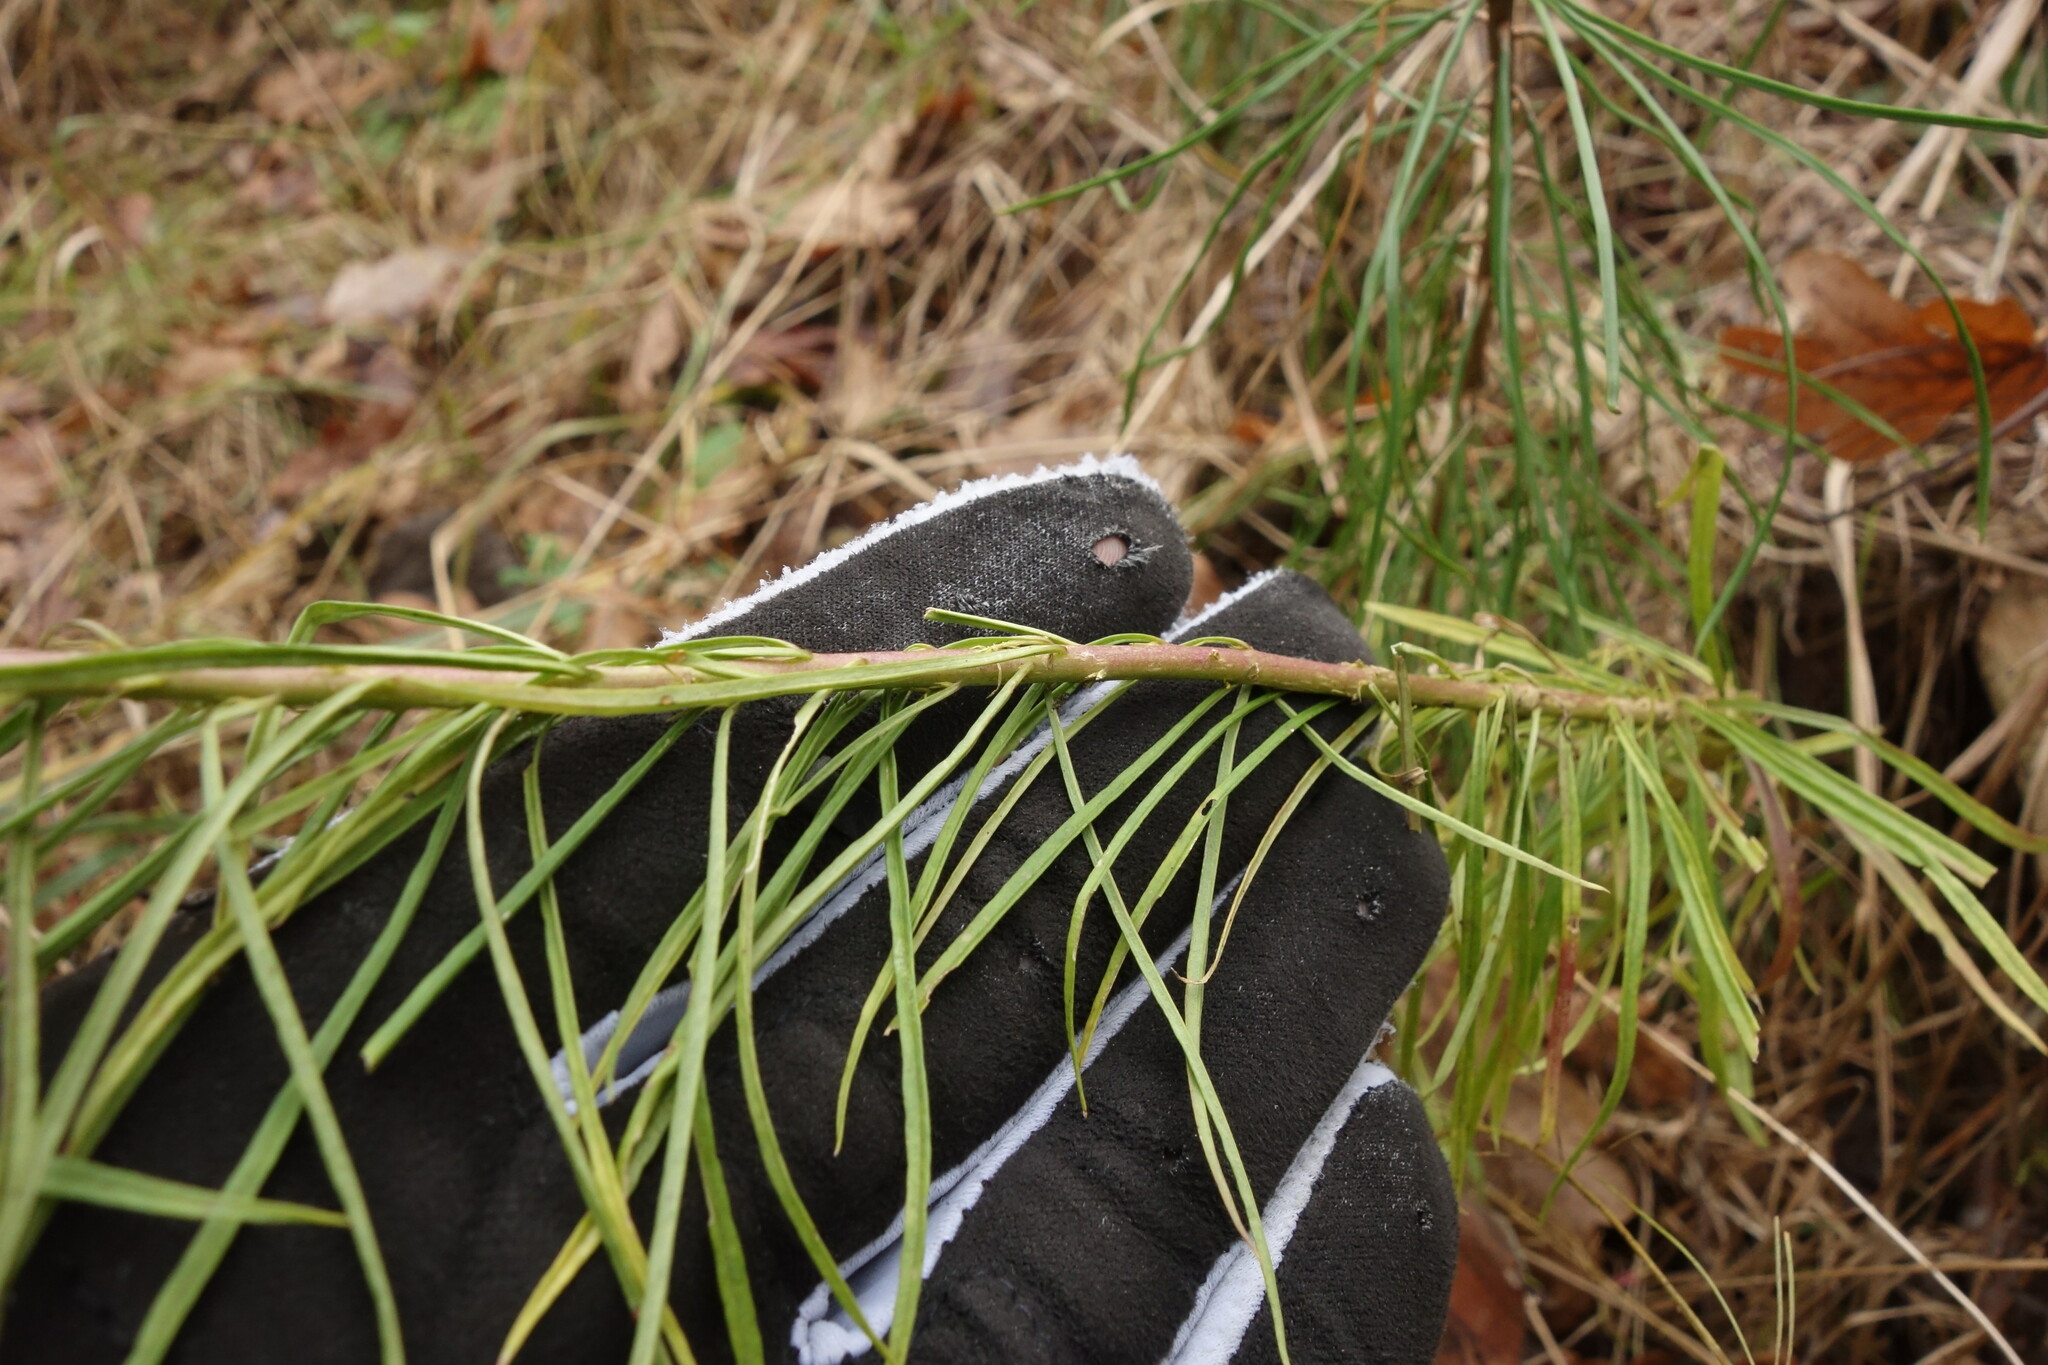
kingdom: Plantae
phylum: Tracheophyta
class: Magnoliopsida
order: Lamiales
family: Plantaginaceae
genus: Linaria
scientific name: Linaria vulgaris
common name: Butter and eggs
